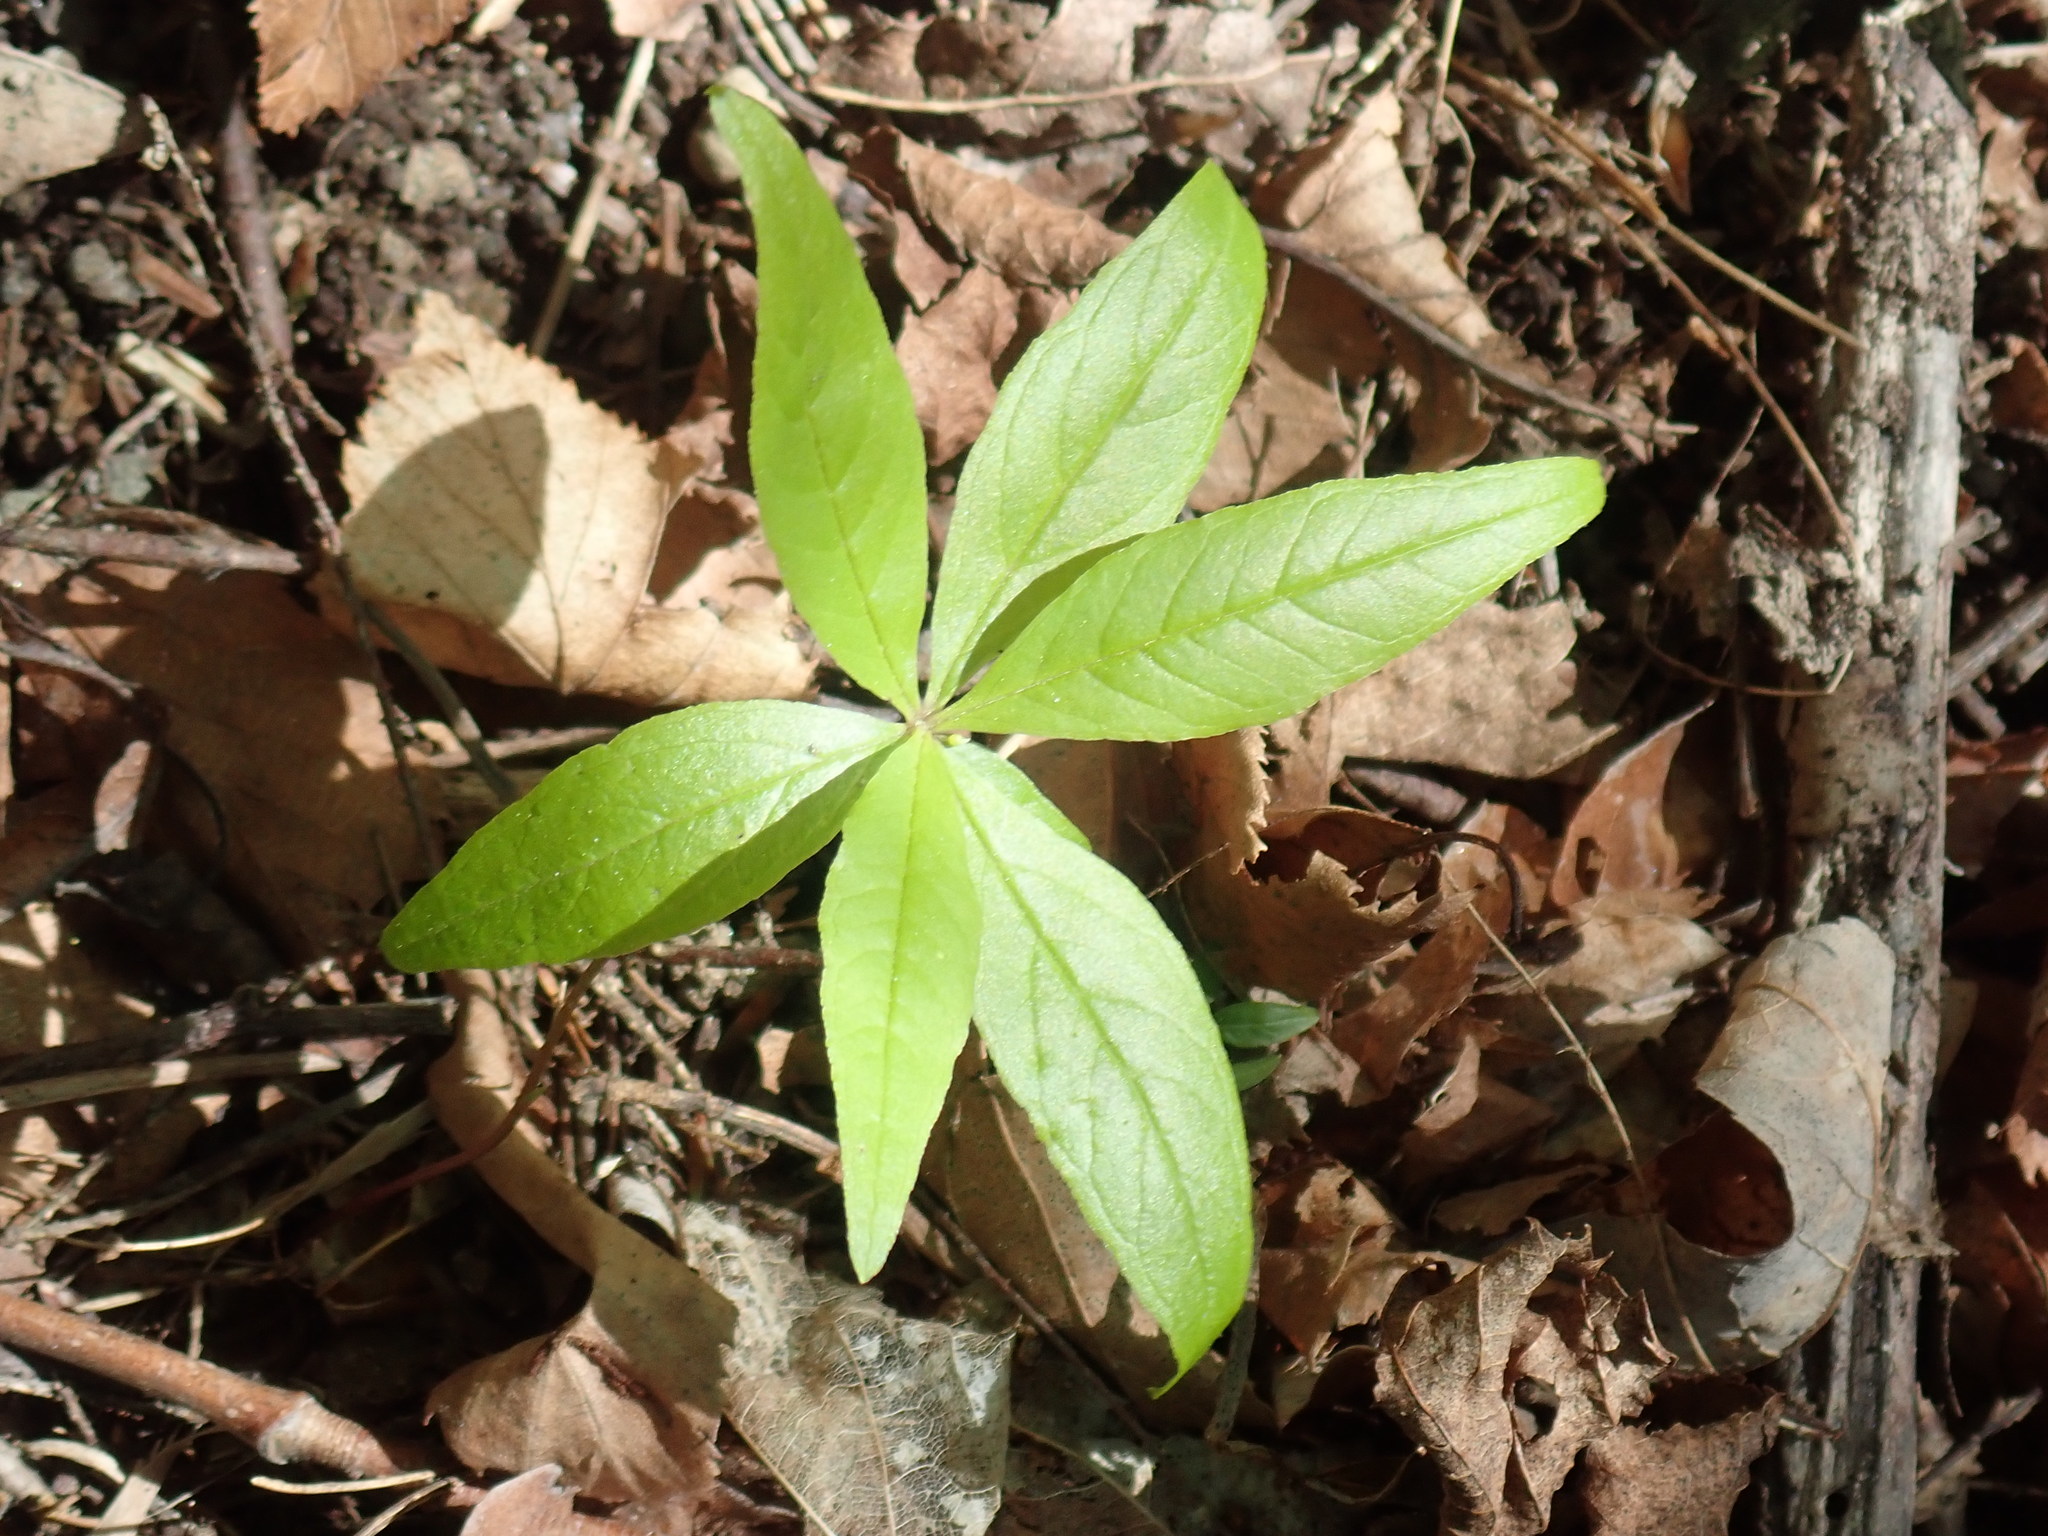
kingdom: Plantae
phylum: Tracheophyta
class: Magnoliopsida
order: Ericales
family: Primulaceae
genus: Lysimachia
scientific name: Lysimachia borealis
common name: American starflower
